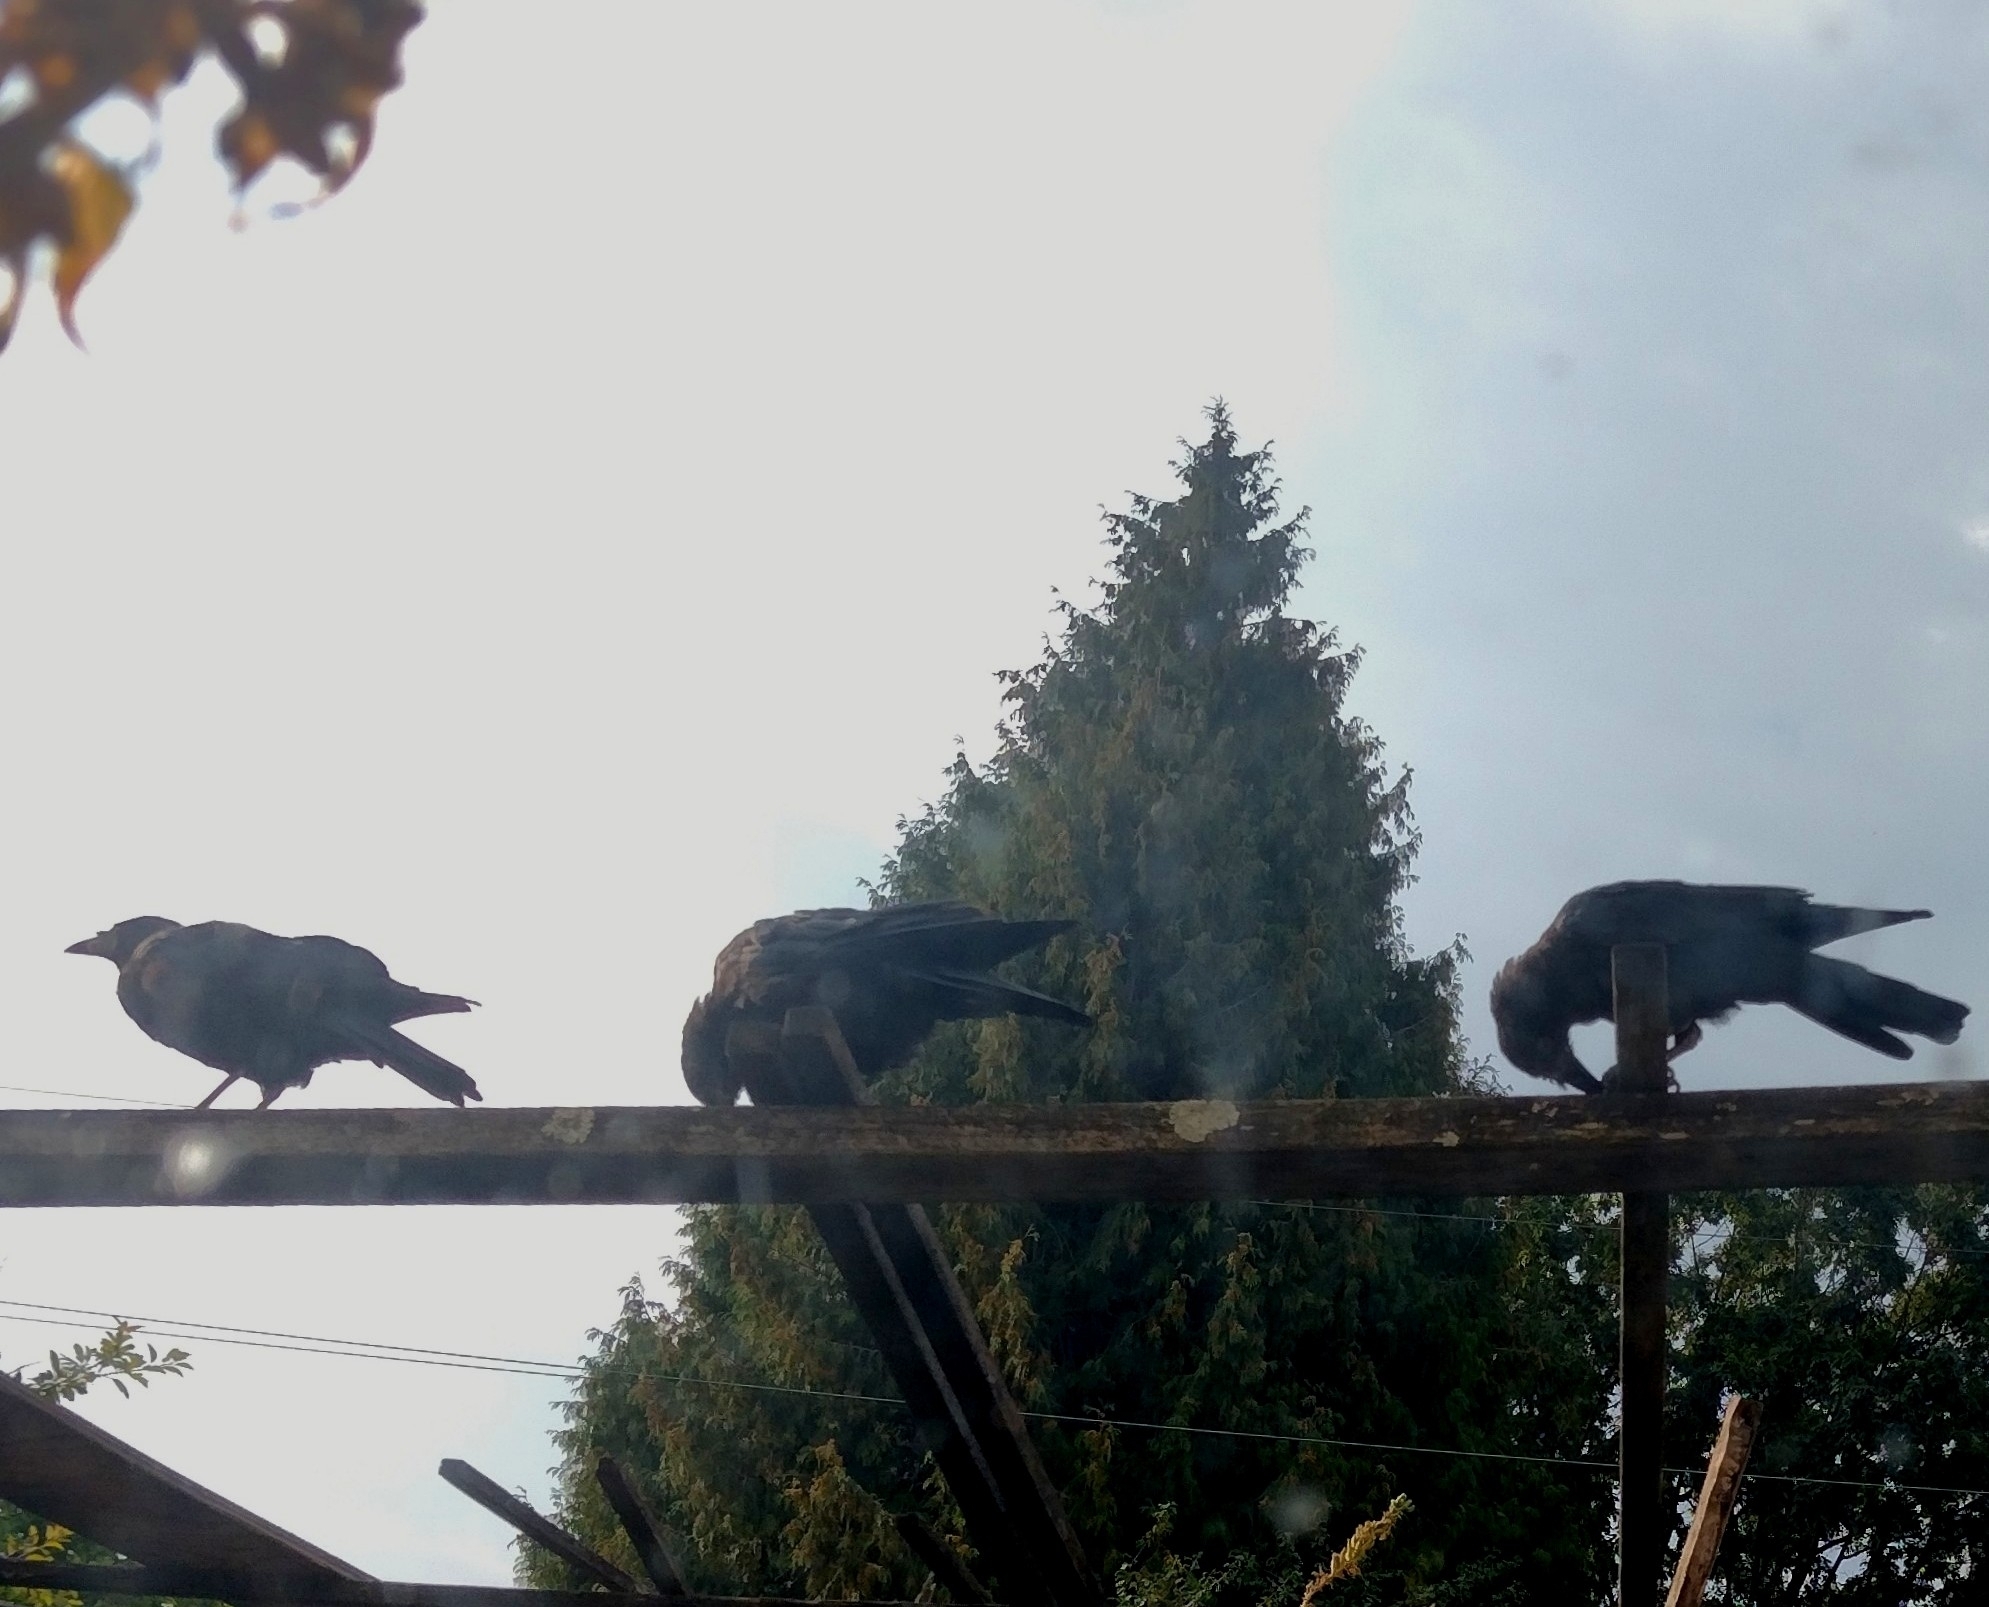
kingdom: Animalia
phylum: Chordata
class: Aves
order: Passeriformes
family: Corvidae
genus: Corvus
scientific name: Corvus brachyrhynchos
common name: American crow
